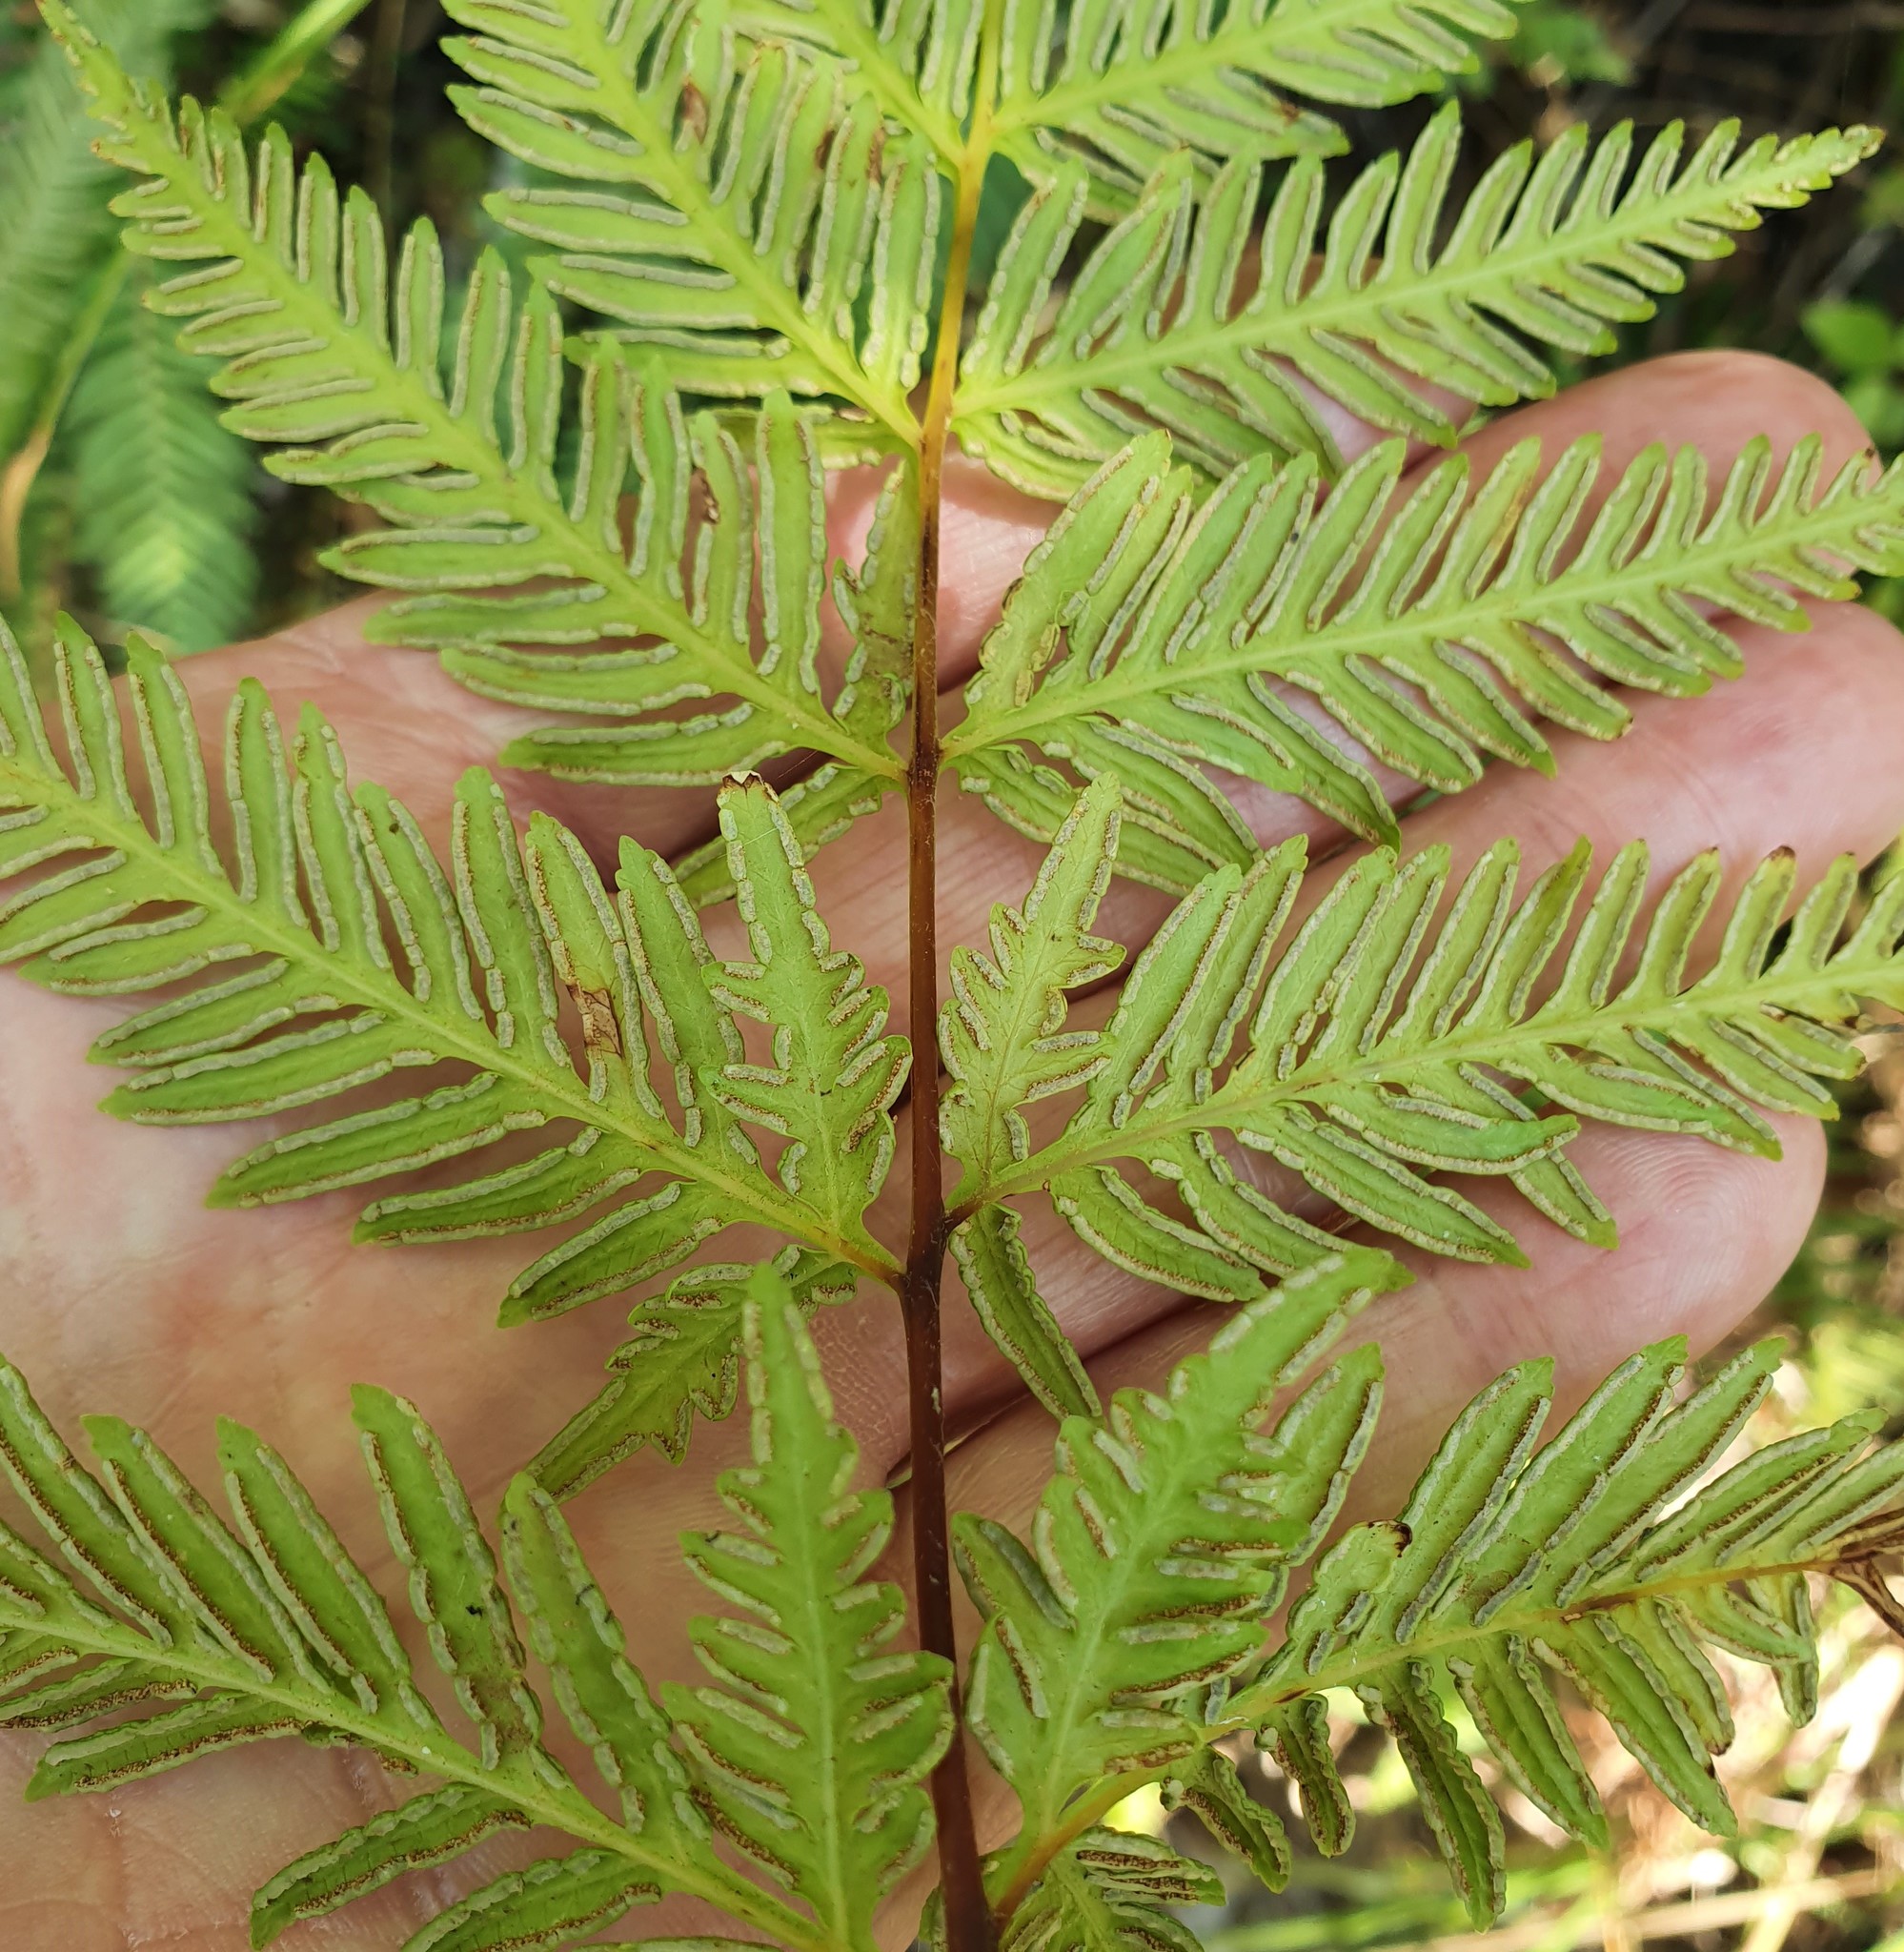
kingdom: Plantae
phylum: Tracheophyta
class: Polypodiopsida
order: Polypodiales
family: Pteridaceae
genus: Pteris
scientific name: Pteris tremula
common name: Australian brake
